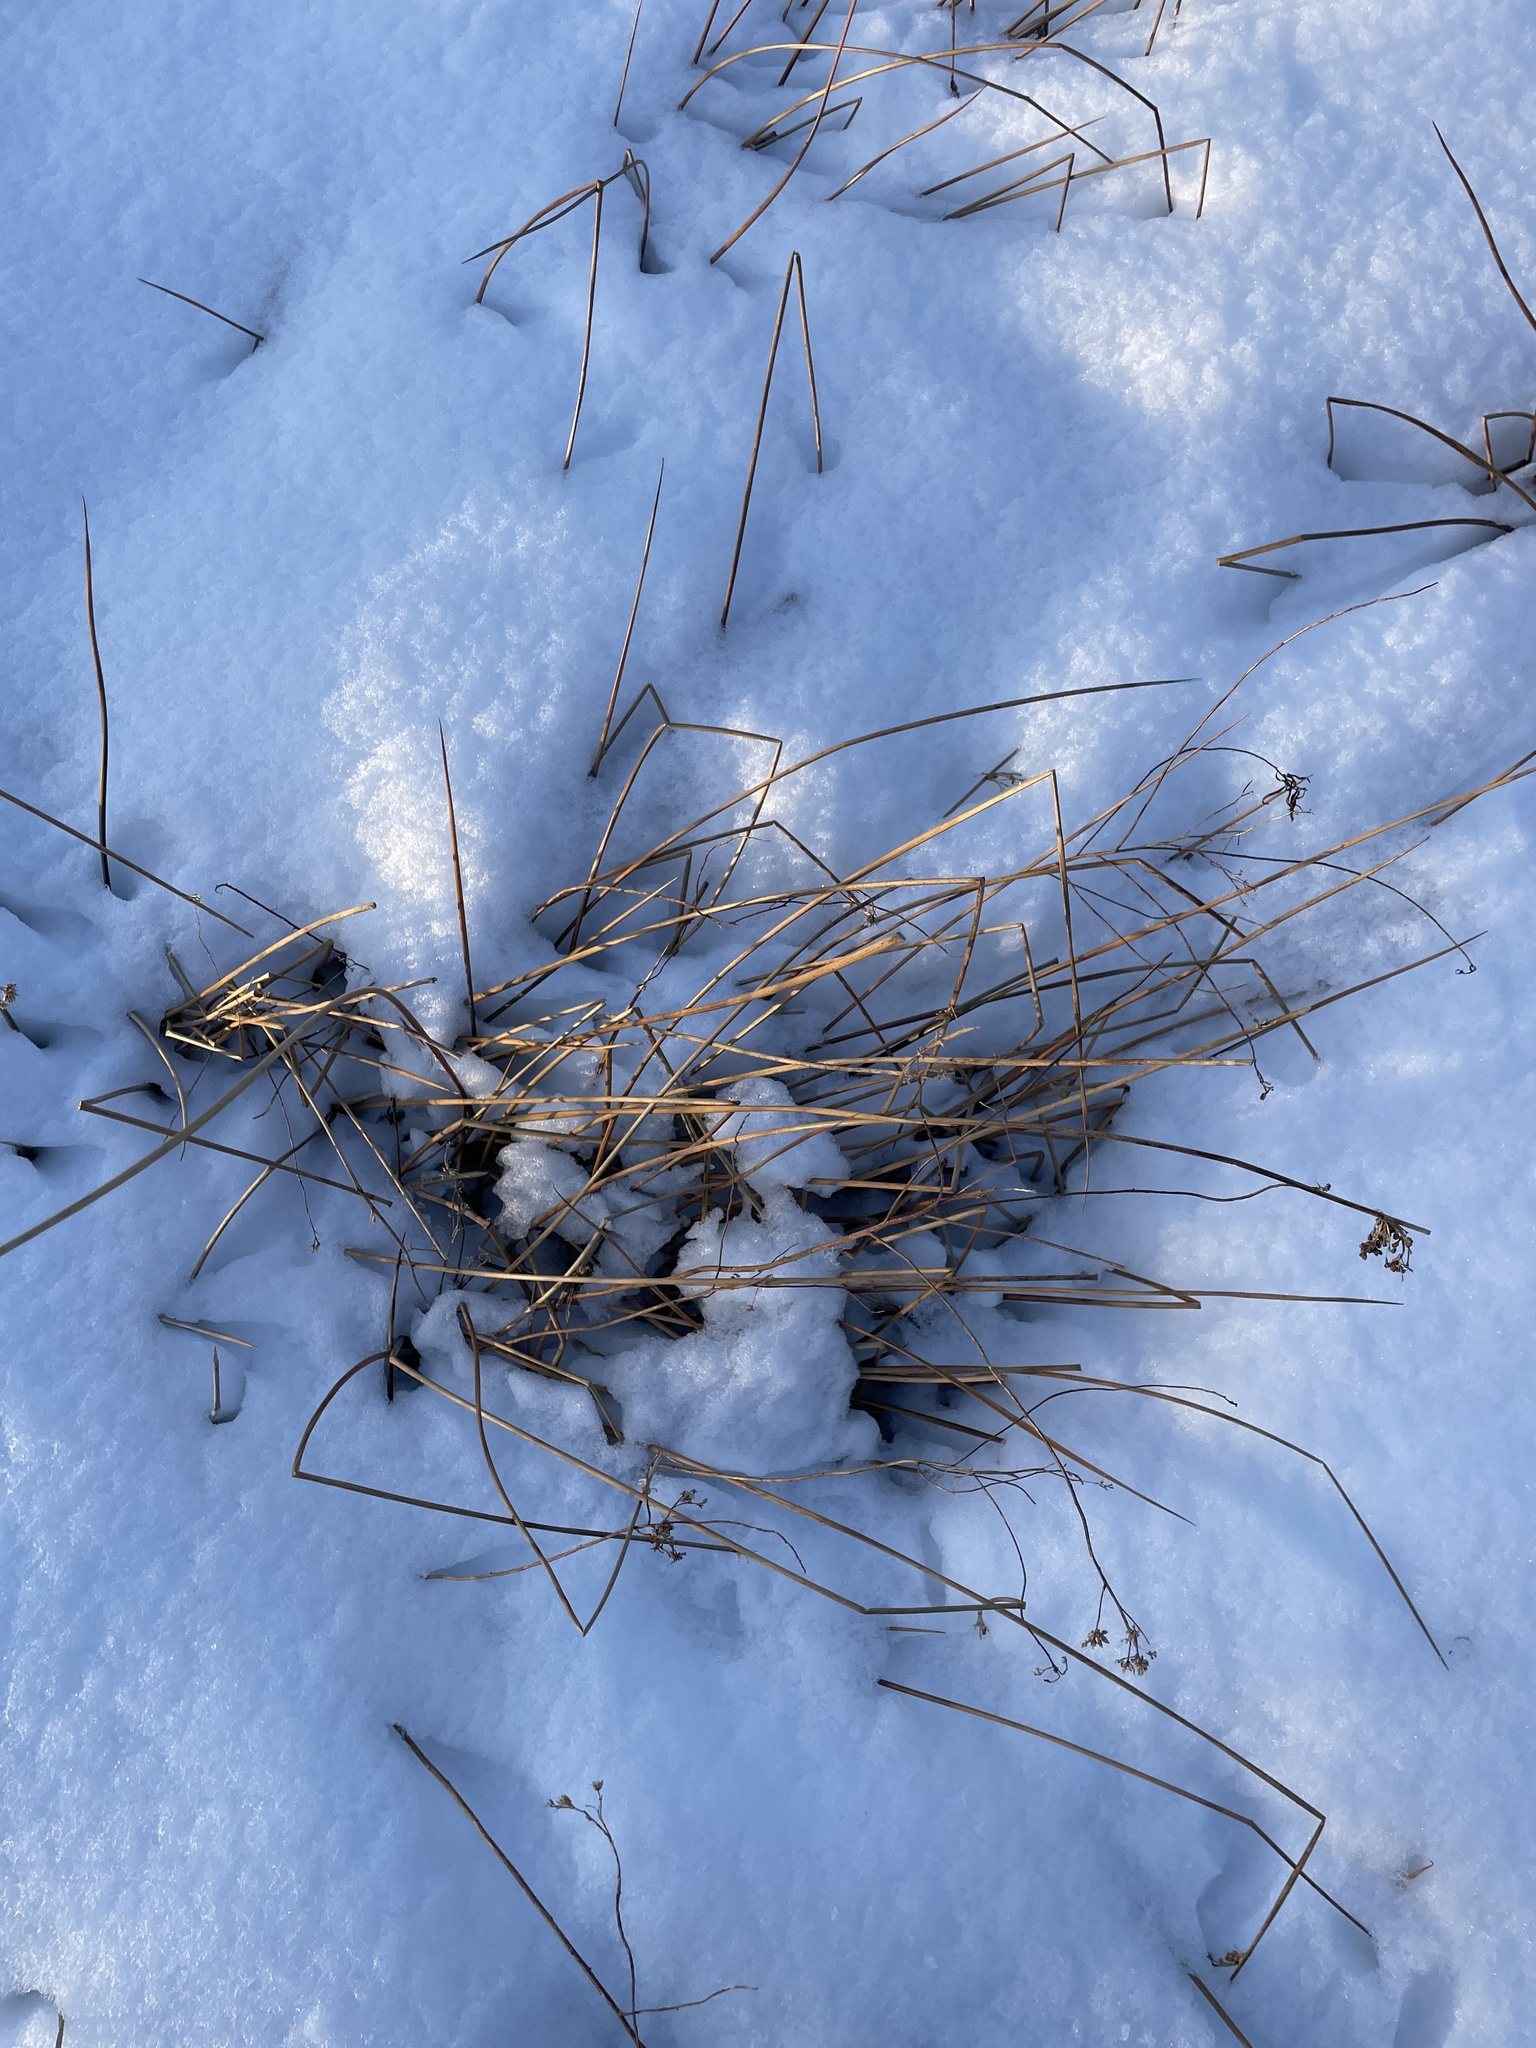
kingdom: Plantae
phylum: Tracheophyta
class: Liliopsida
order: Poales
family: Juncaceae
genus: Juncus
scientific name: Juncus effusus
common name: Soft rush
